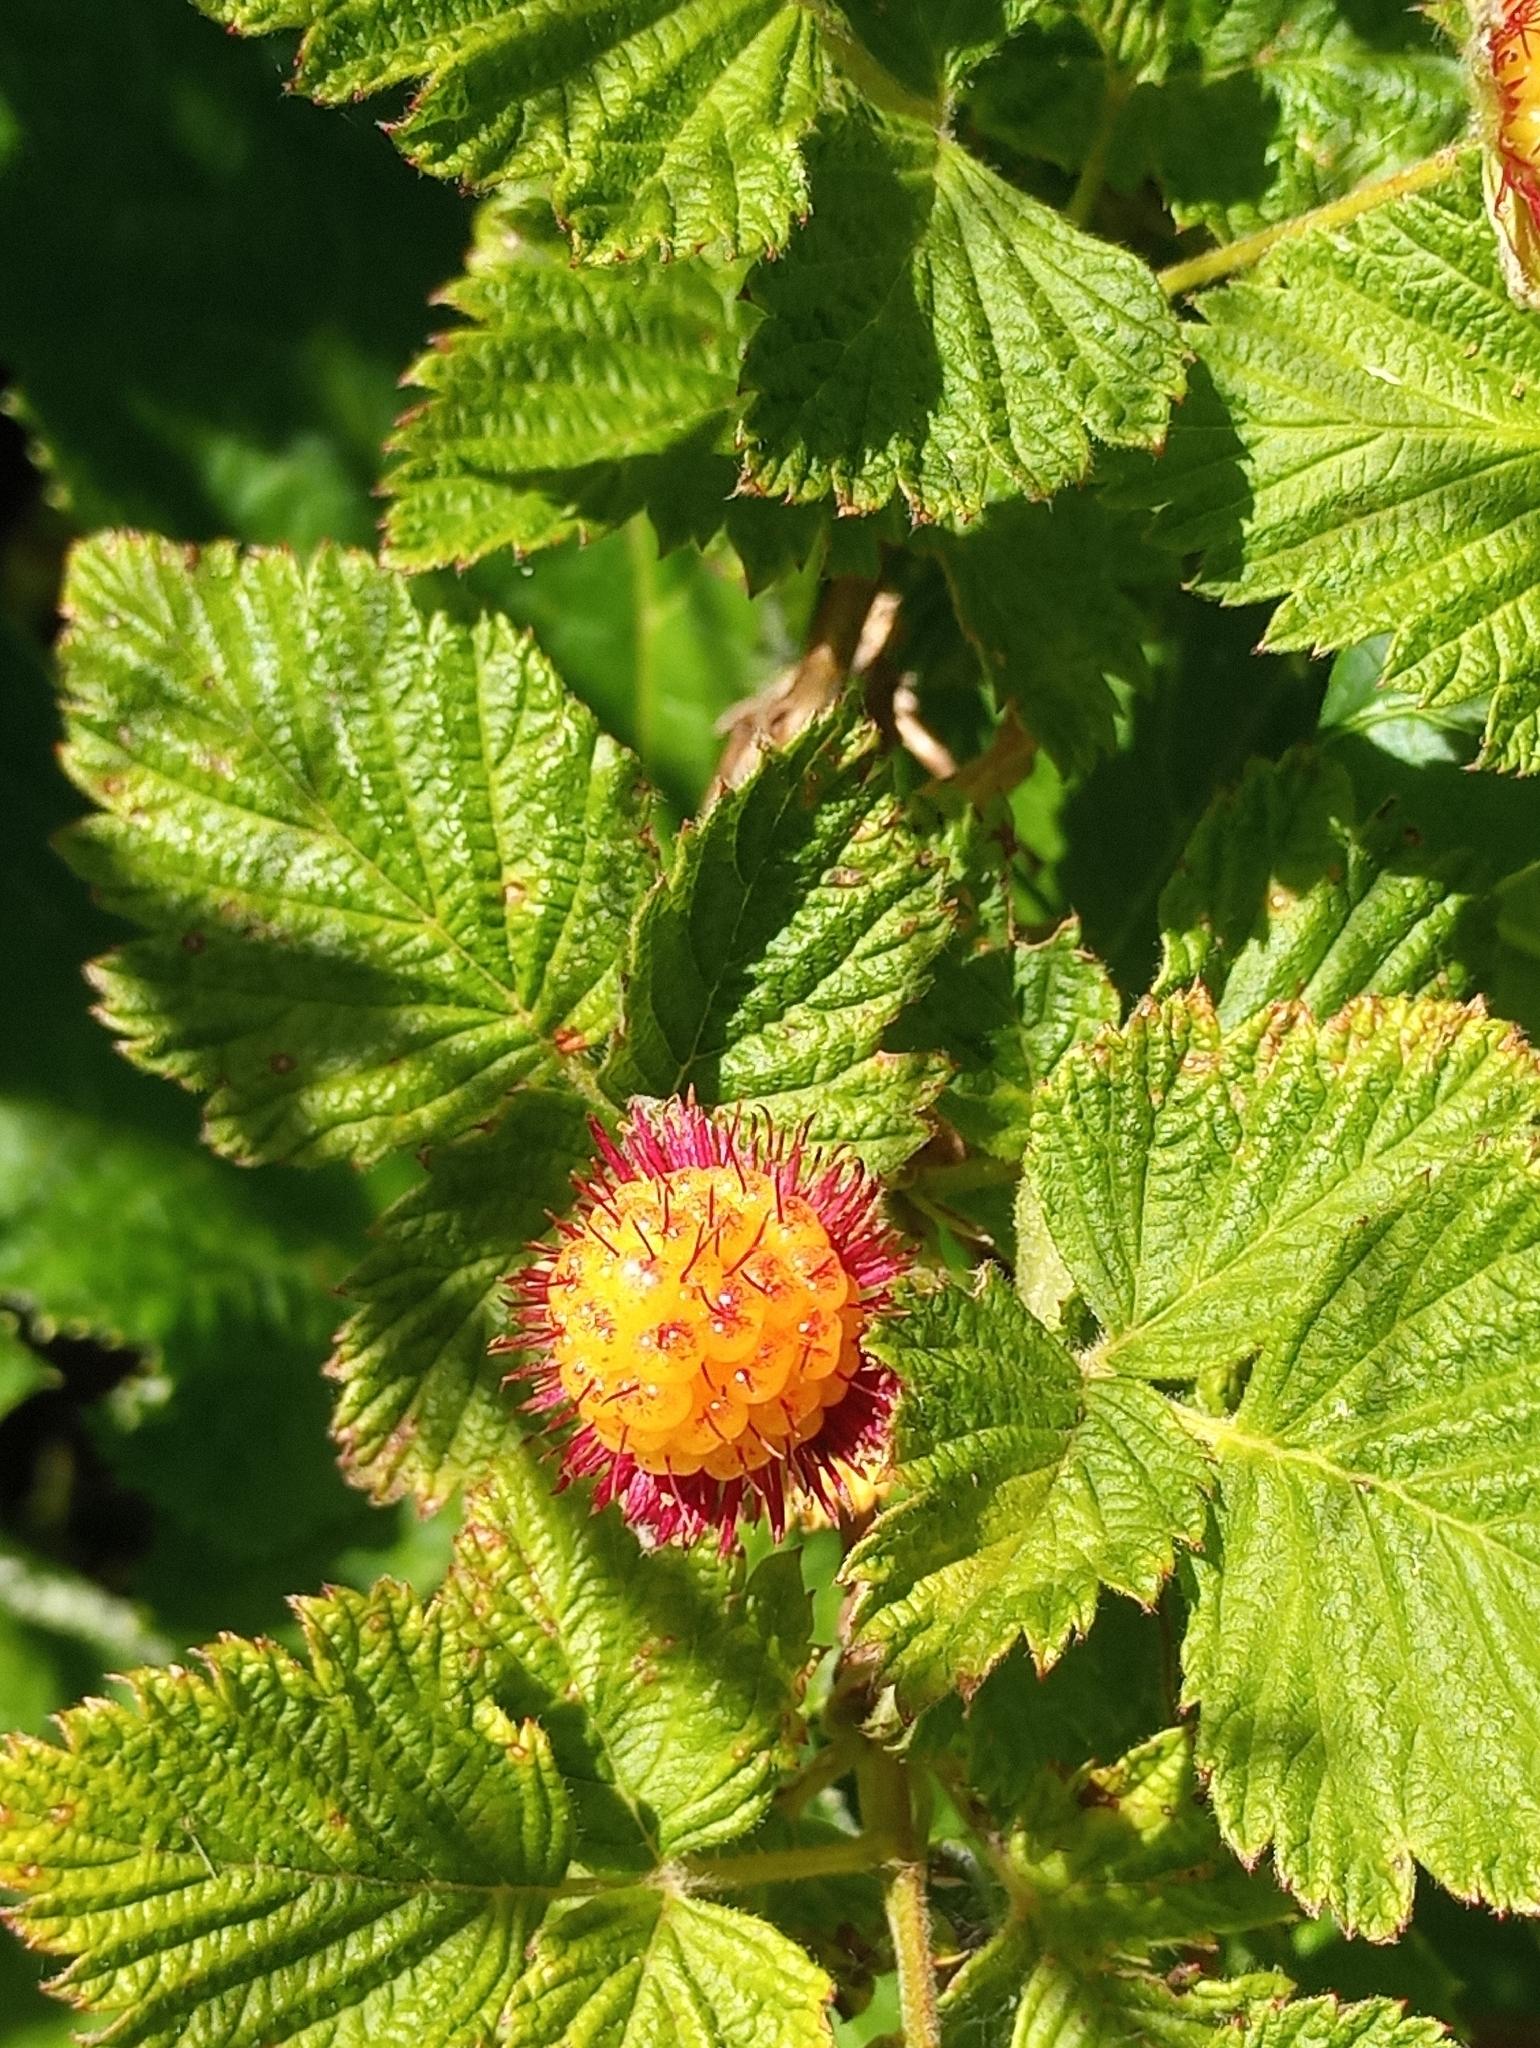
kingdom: Plantae
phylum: Tracheophyta
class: Magnoliopsida
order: Rosales
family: Rosaceae
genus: Rubus
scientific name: Rubus spectabilis
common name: Salmonberry
